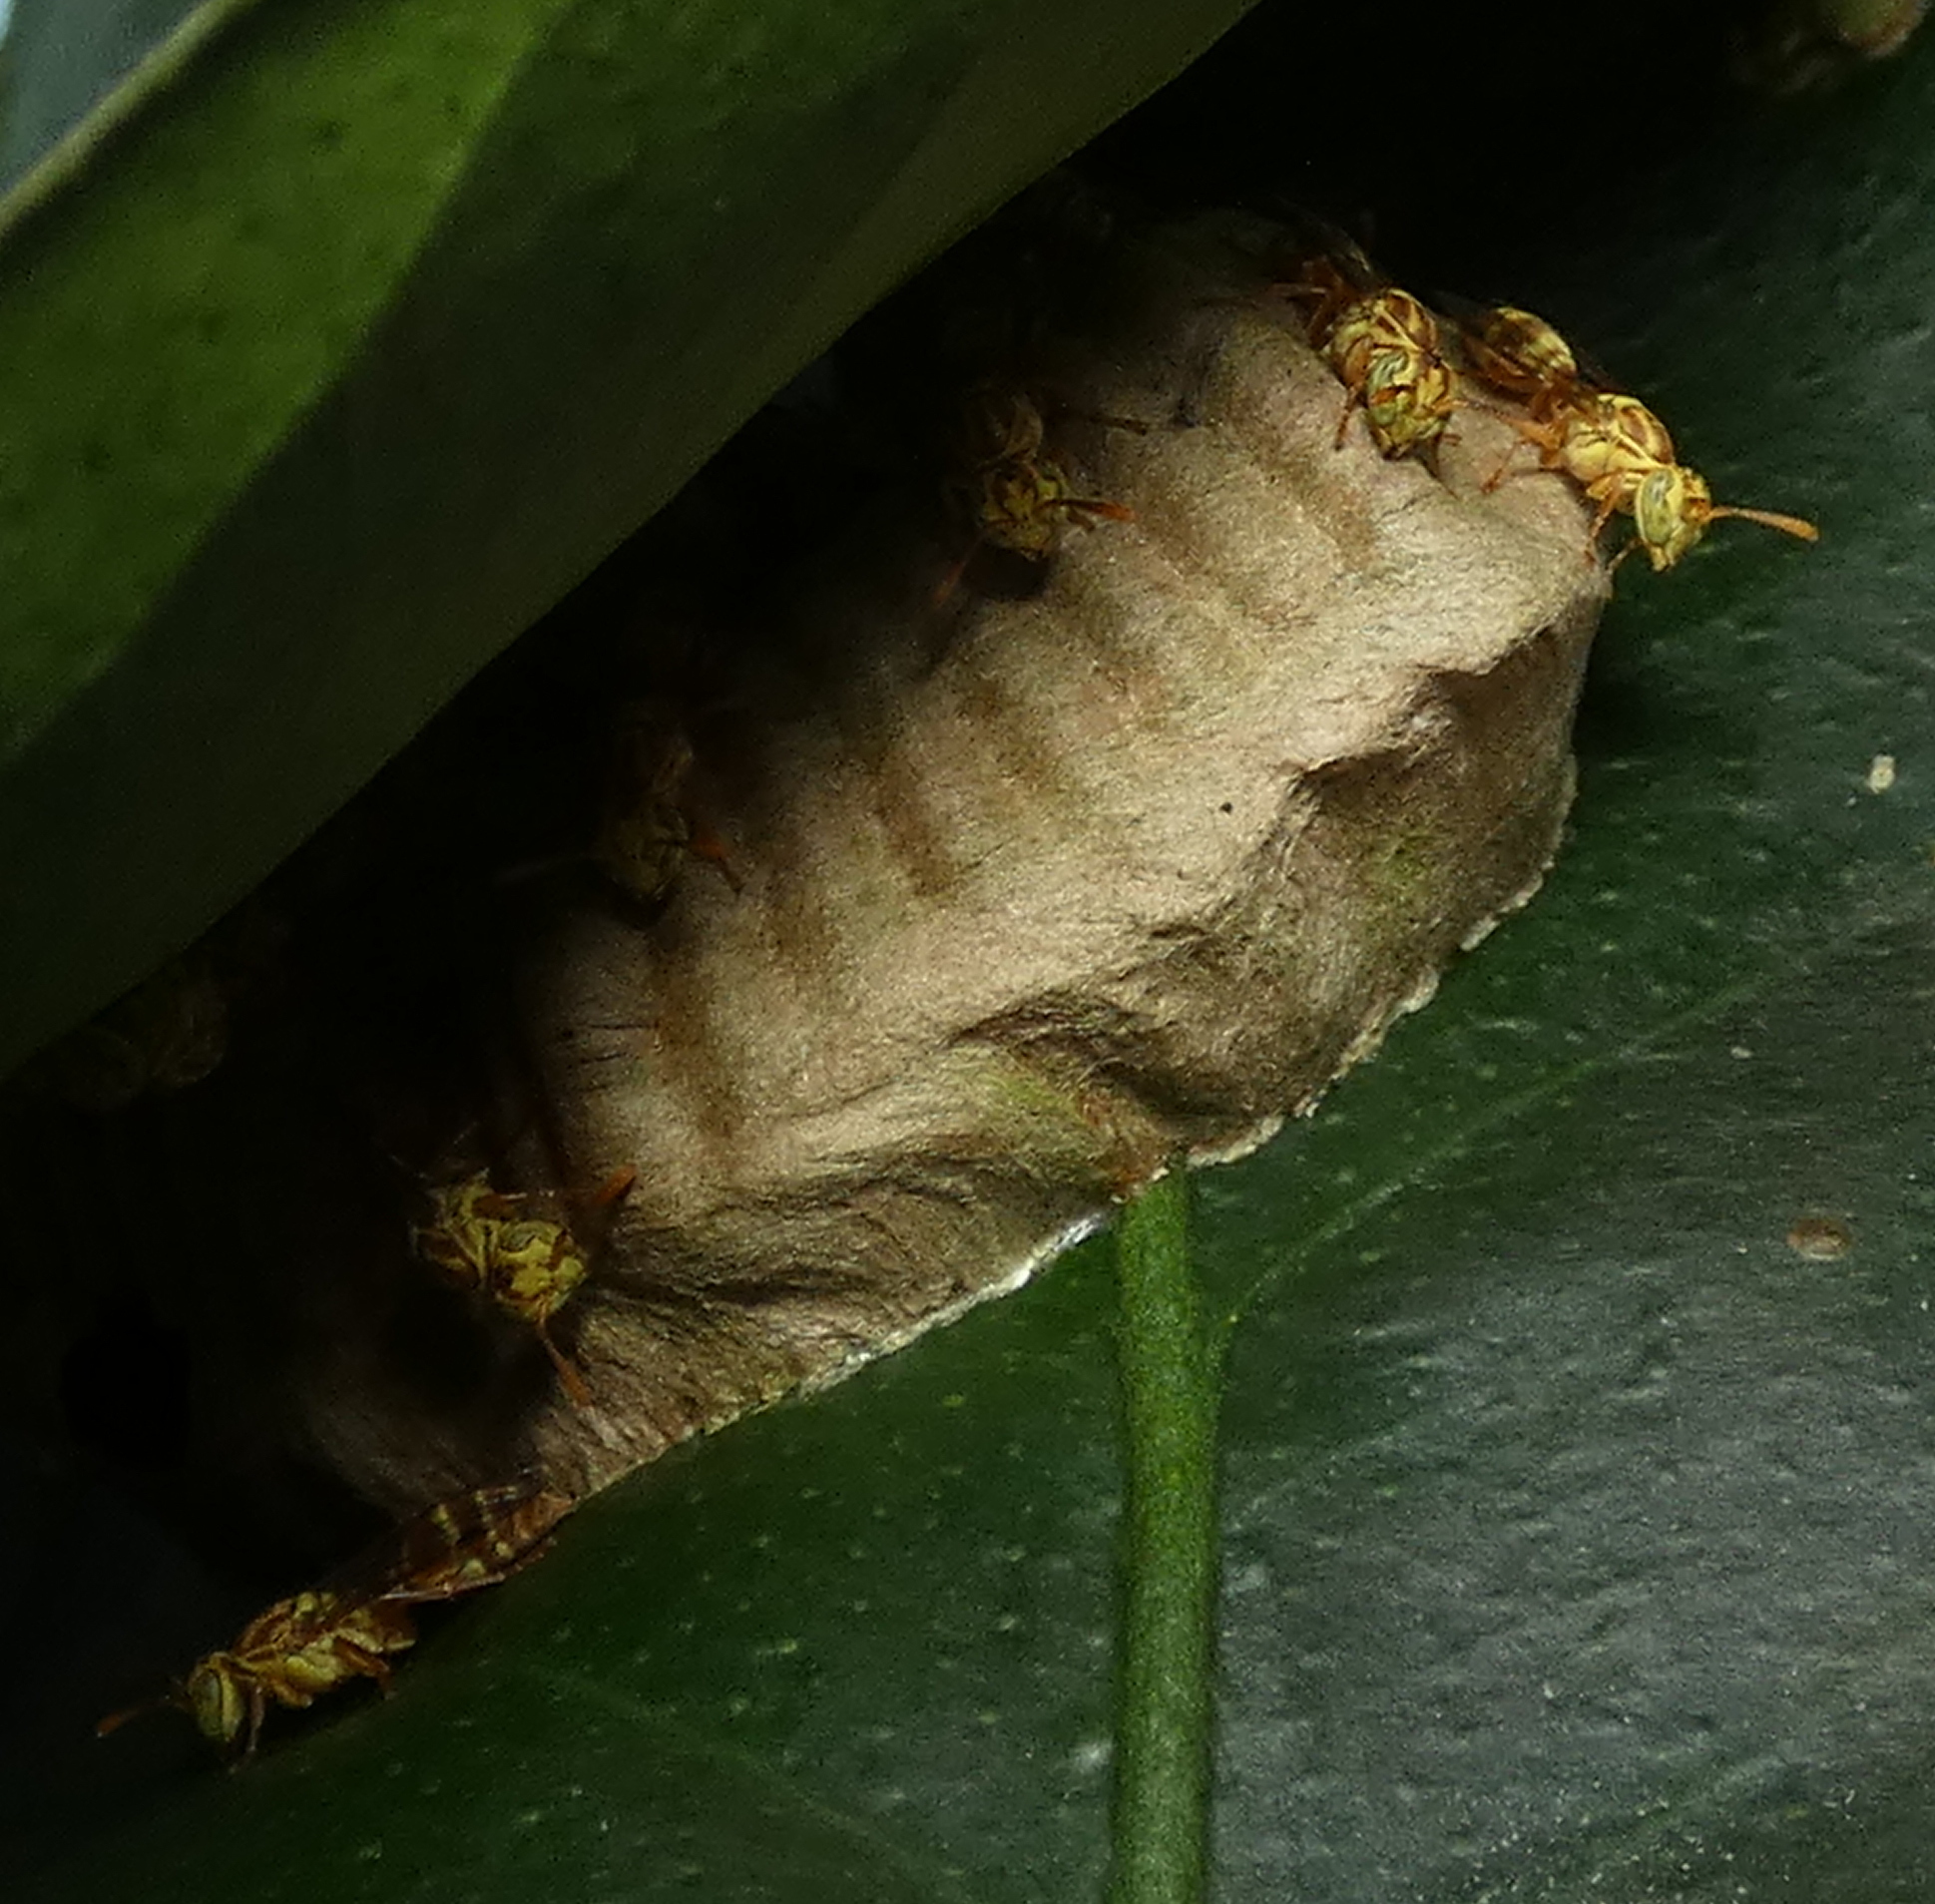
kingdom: Animalia
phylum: Arthropoda
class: Insecta
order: Hymenoptera
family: Vespidae
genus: Protopolybia
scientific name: Protopolybia potiguara
